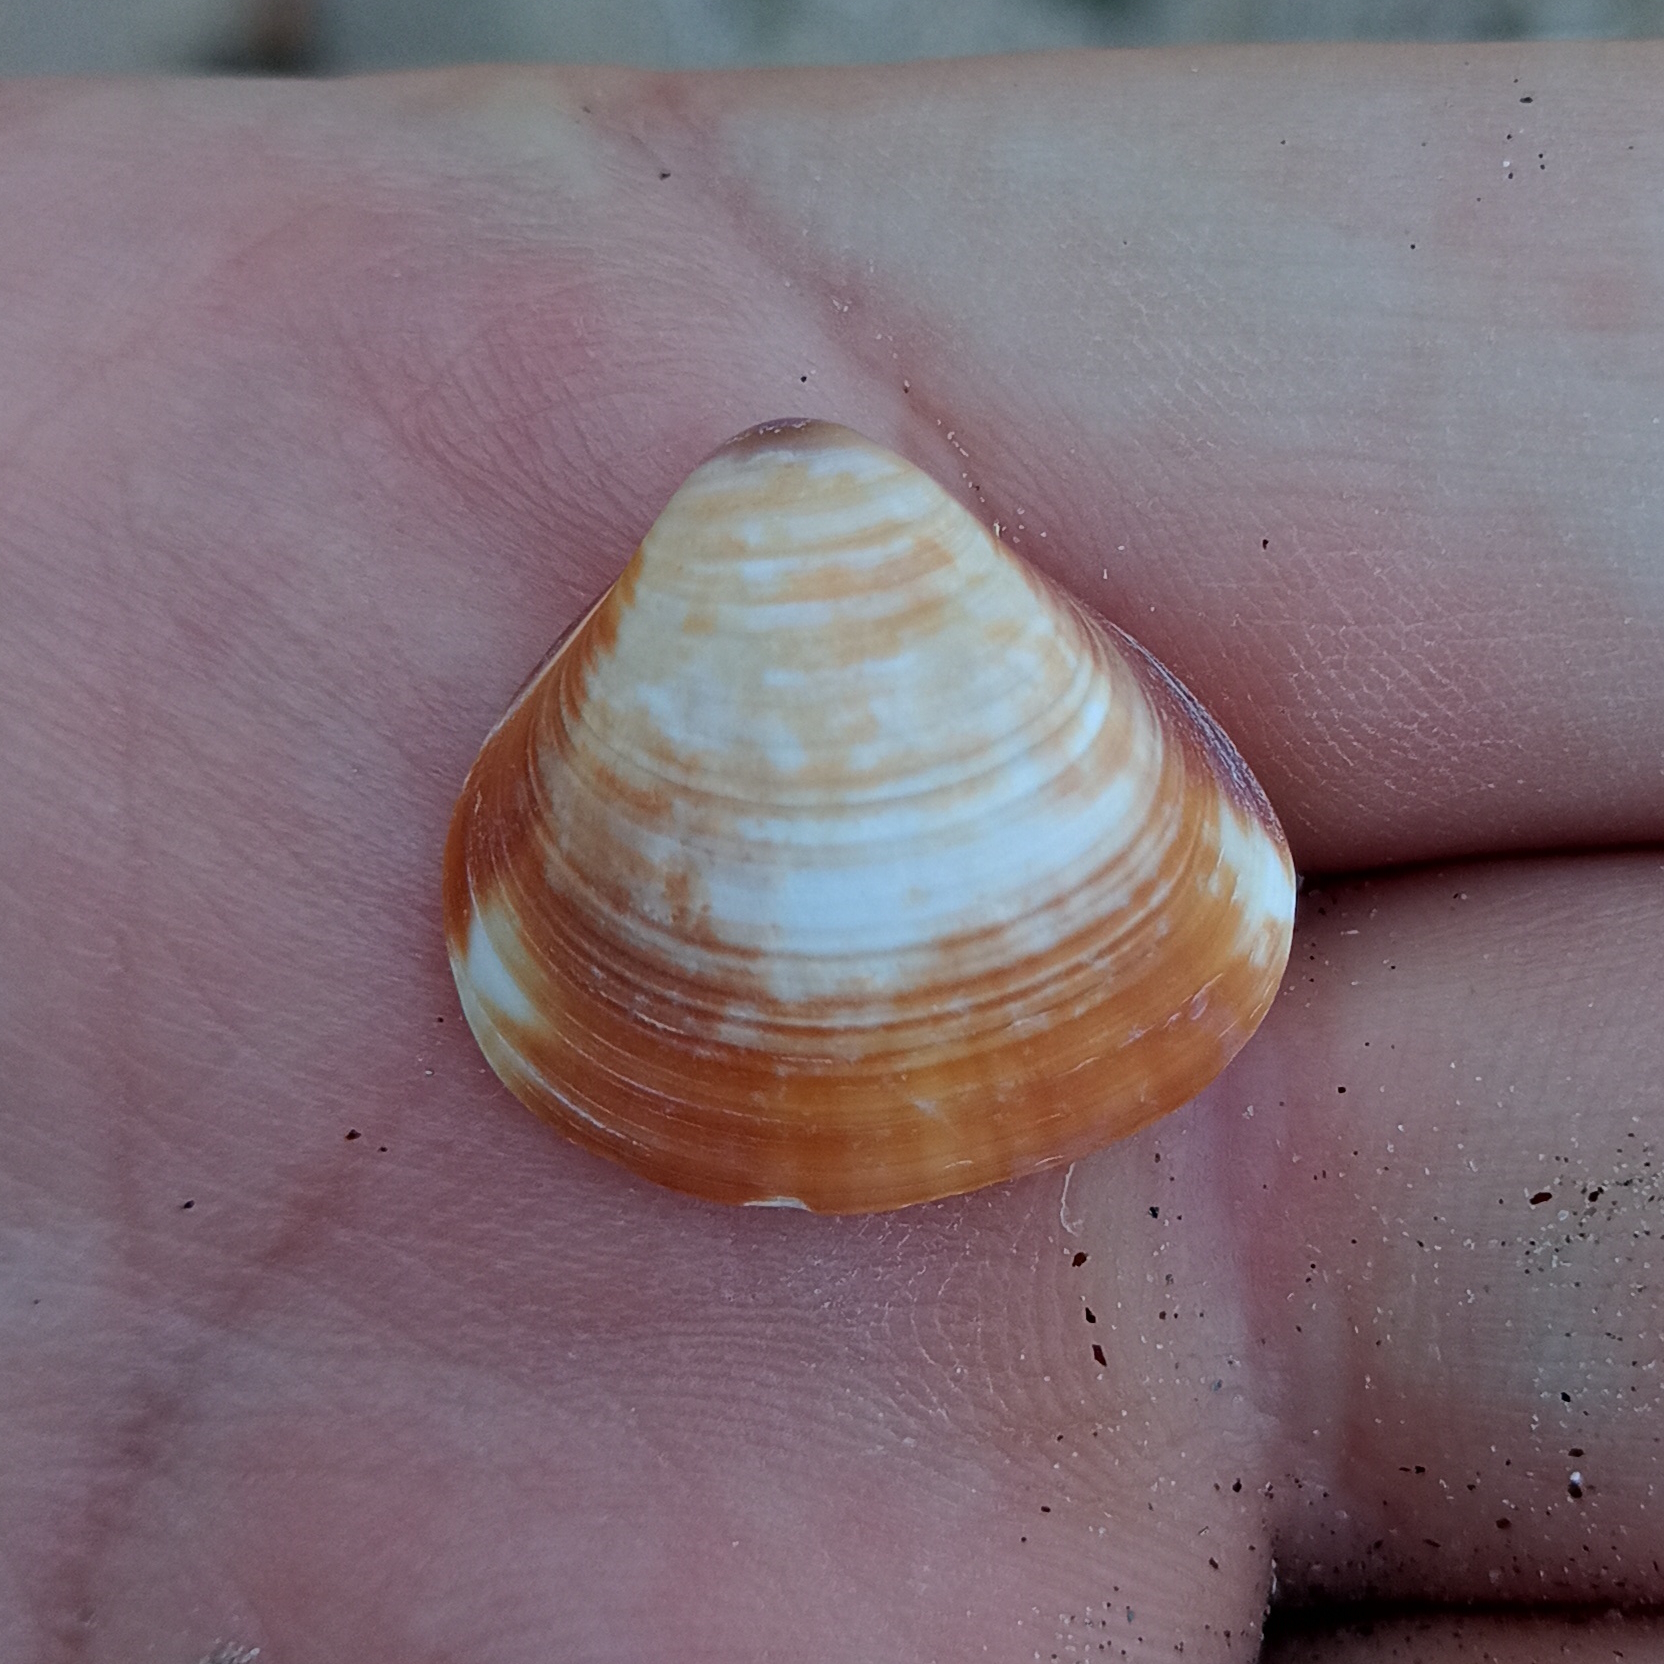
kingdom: Animalia
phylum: Mollusca
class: Bivalvia
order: Venerida
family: Veneridae
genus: Tivela
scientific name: Tivela mactroides
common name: Trigonal tivela
